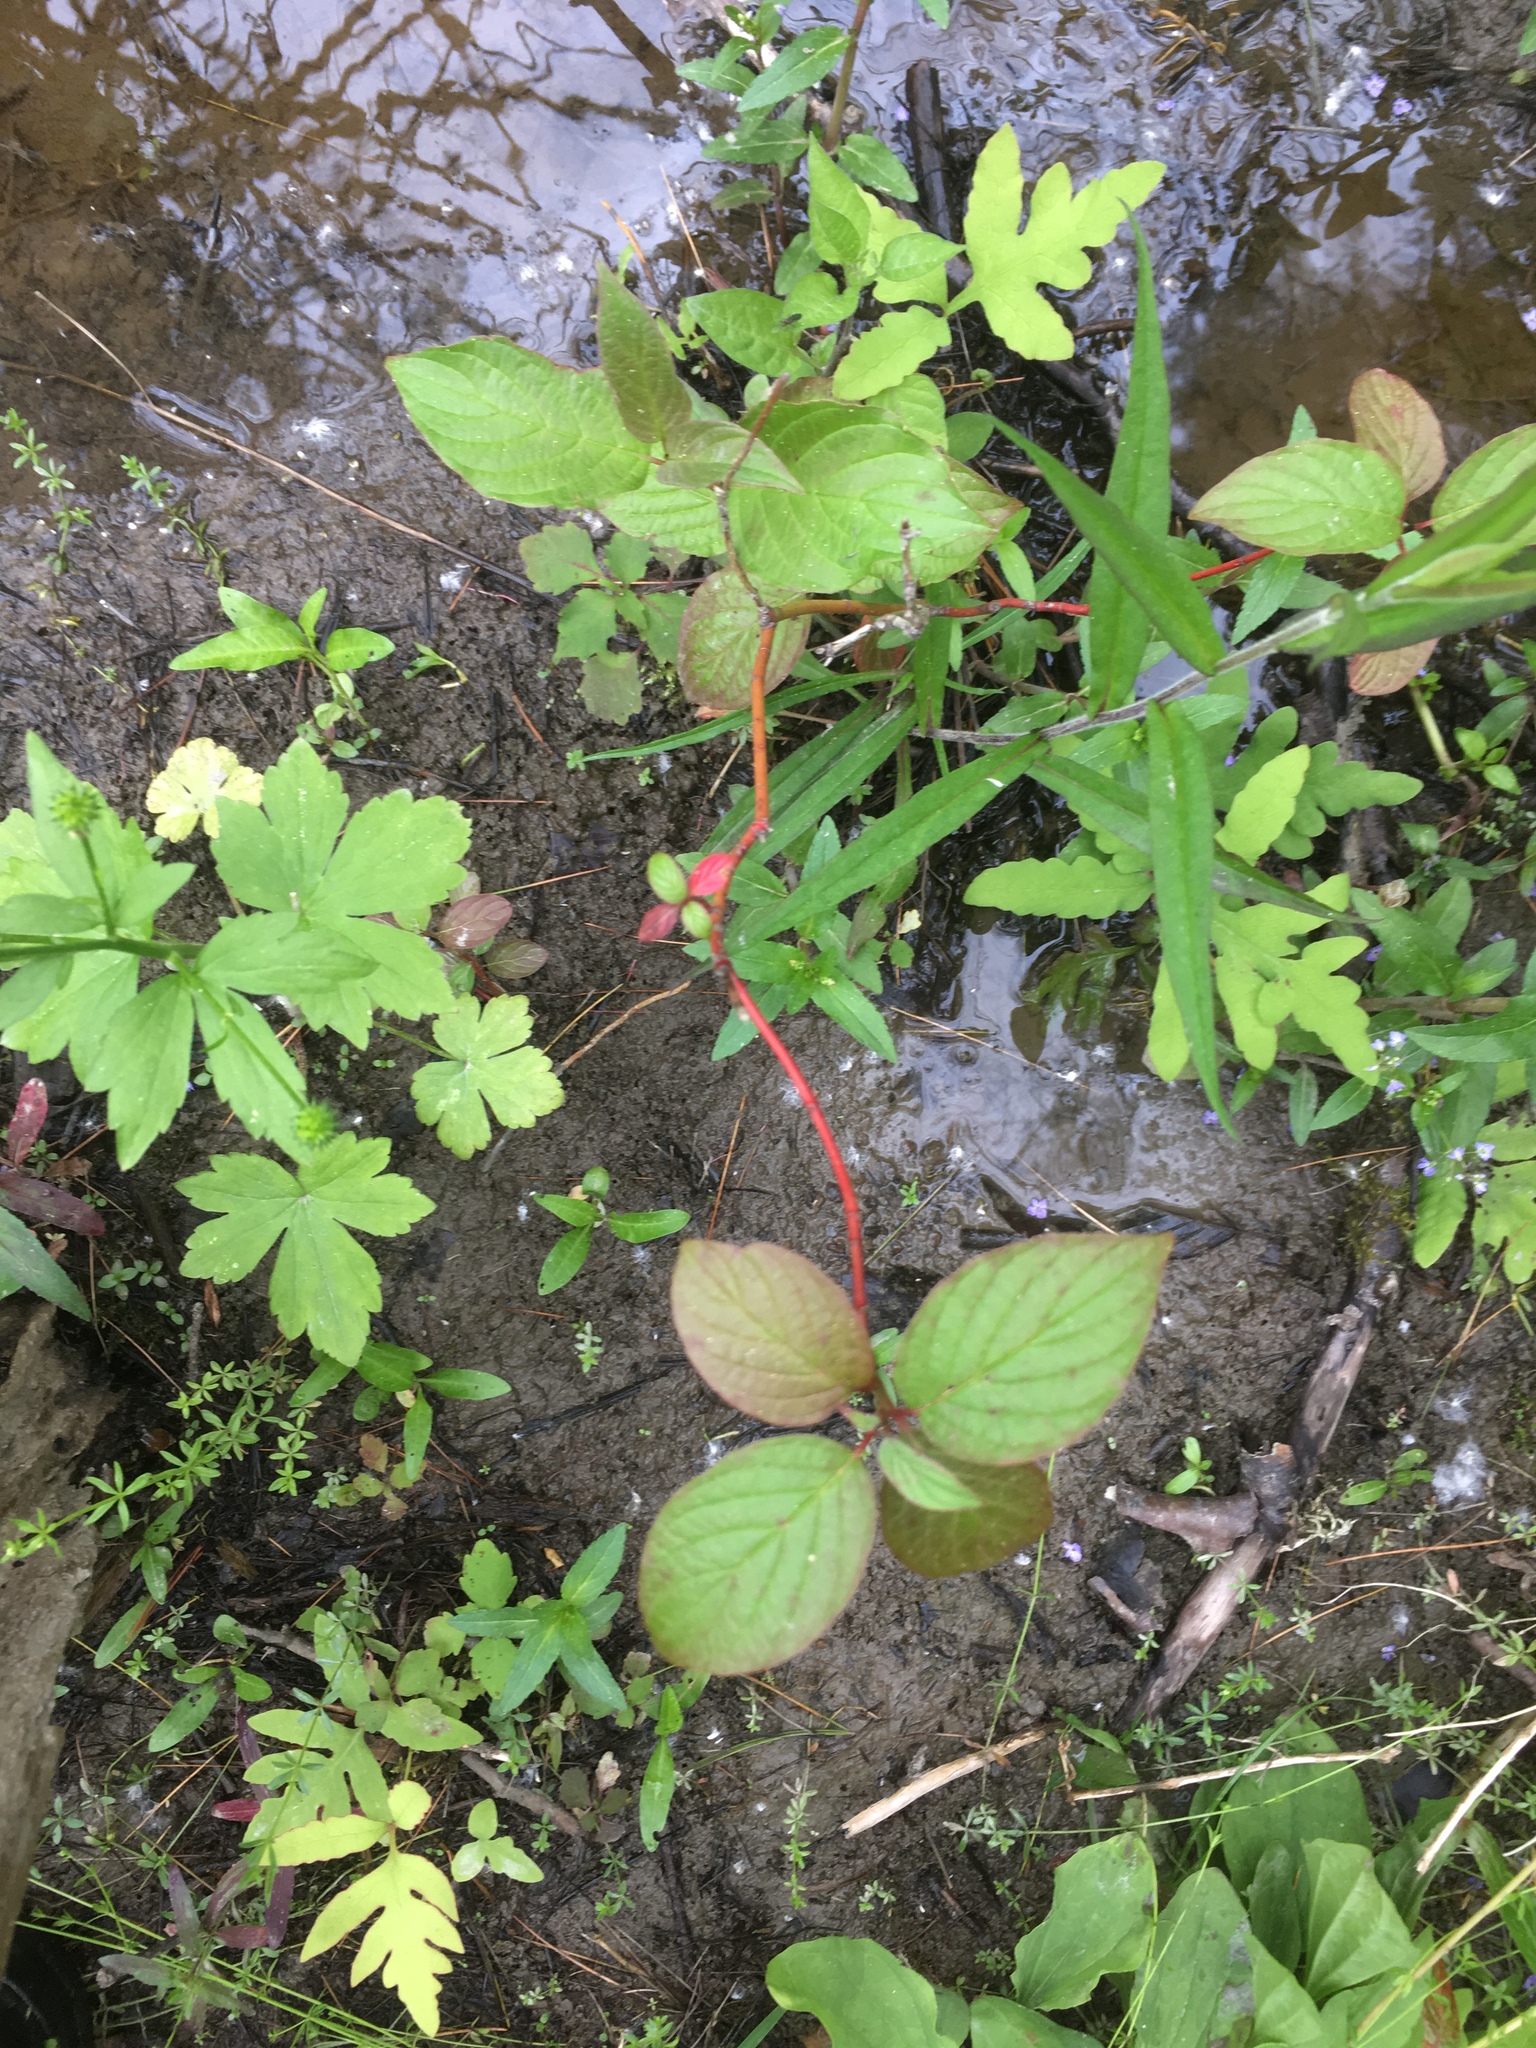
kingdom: Plantae
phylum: Tracheophyta
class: Magnoliopsida
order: Cornales
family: Cornaceae
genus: Cornus
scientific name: Cornus sericea
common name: Red-osier dogwood
